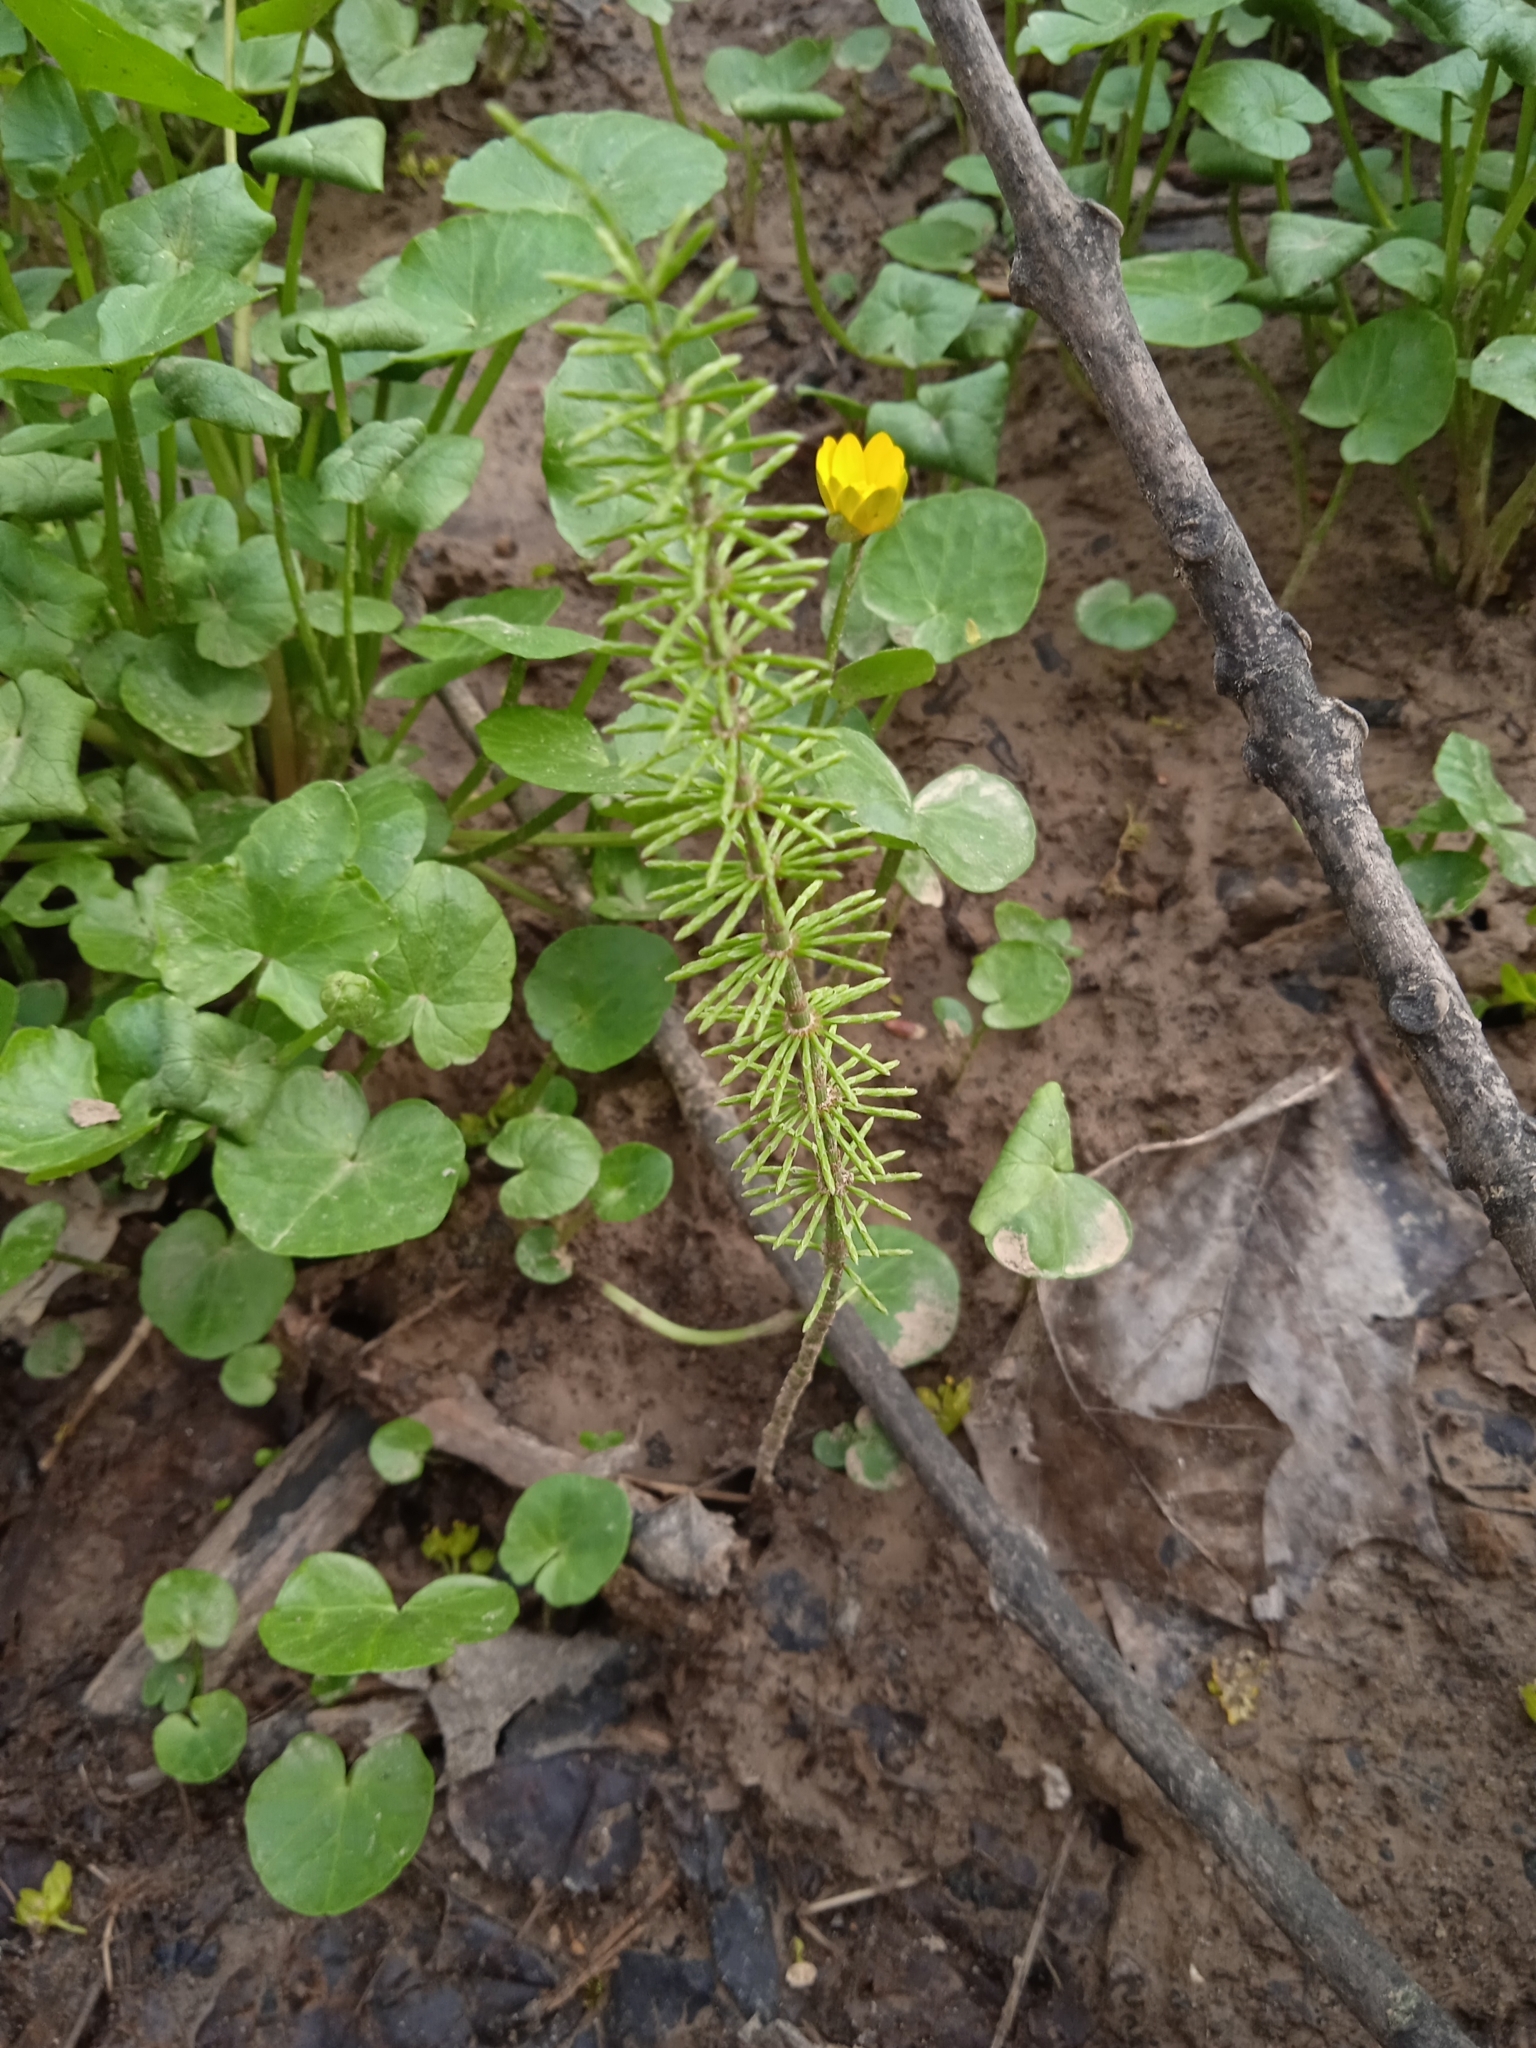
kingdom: Plantae
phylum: Tracheophyta
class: Polypodiopsida
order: Equisetales
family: Equisetaceae
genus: Equisetum
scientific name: Equisetum pratense
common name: Meadow horsetail
